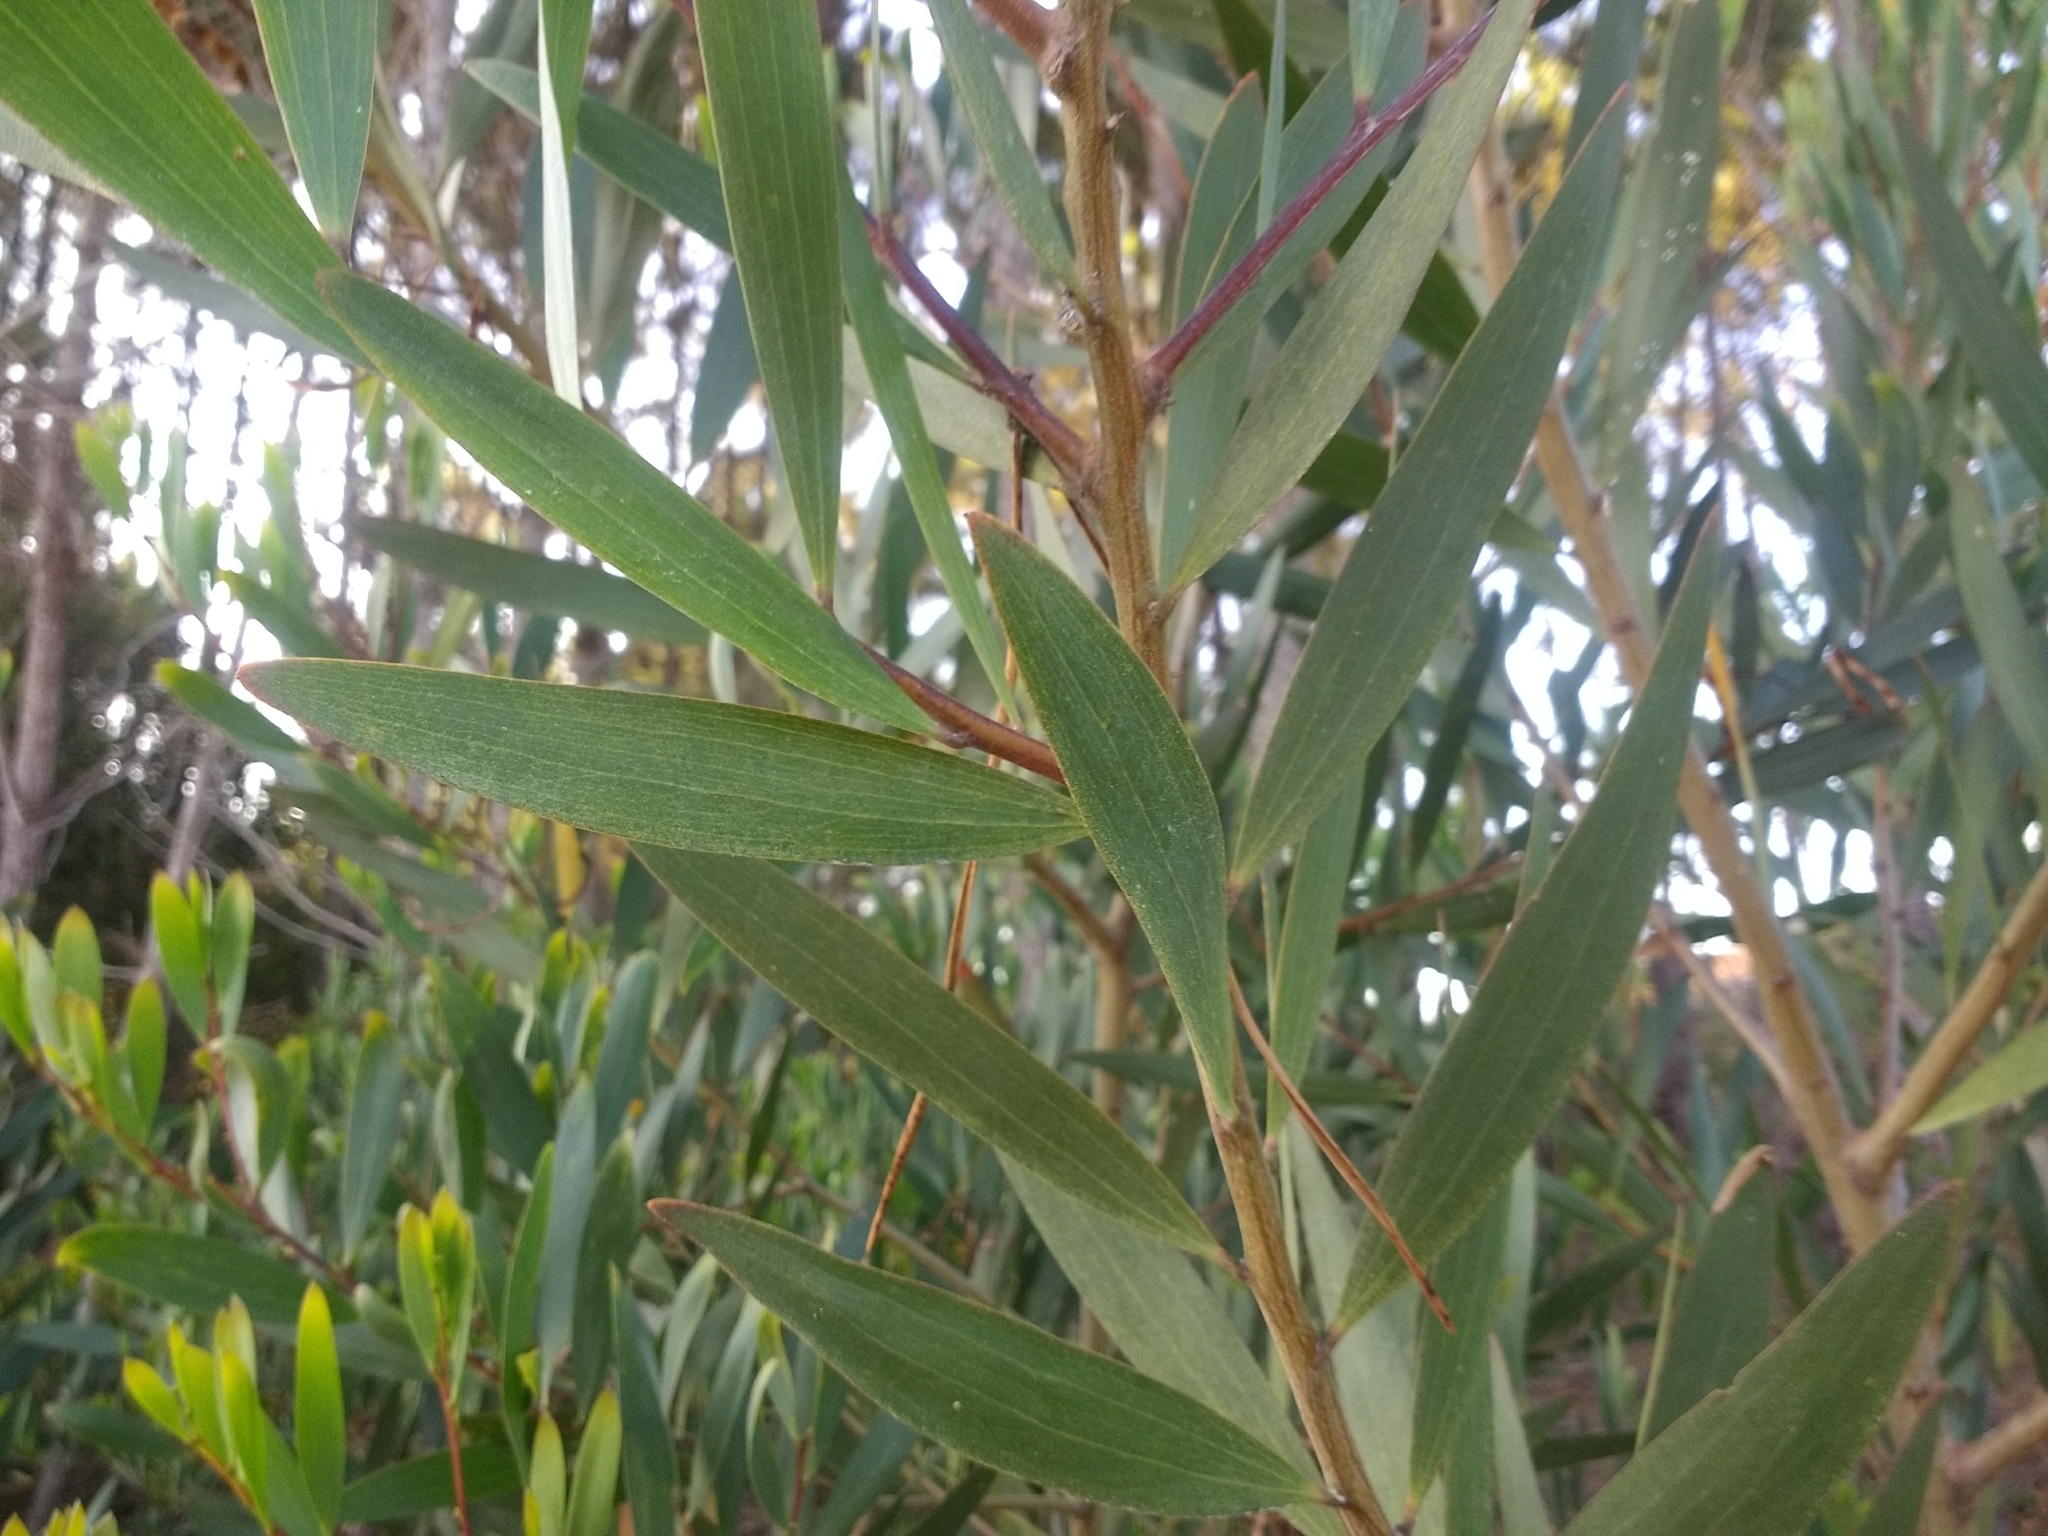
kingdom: Plantae
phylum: Tracheophyta
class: Magnoliopsida
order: Fabales
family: Fabaceae
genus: Acacia
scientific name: Acacia longifolia
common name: Sydney golden wattle
